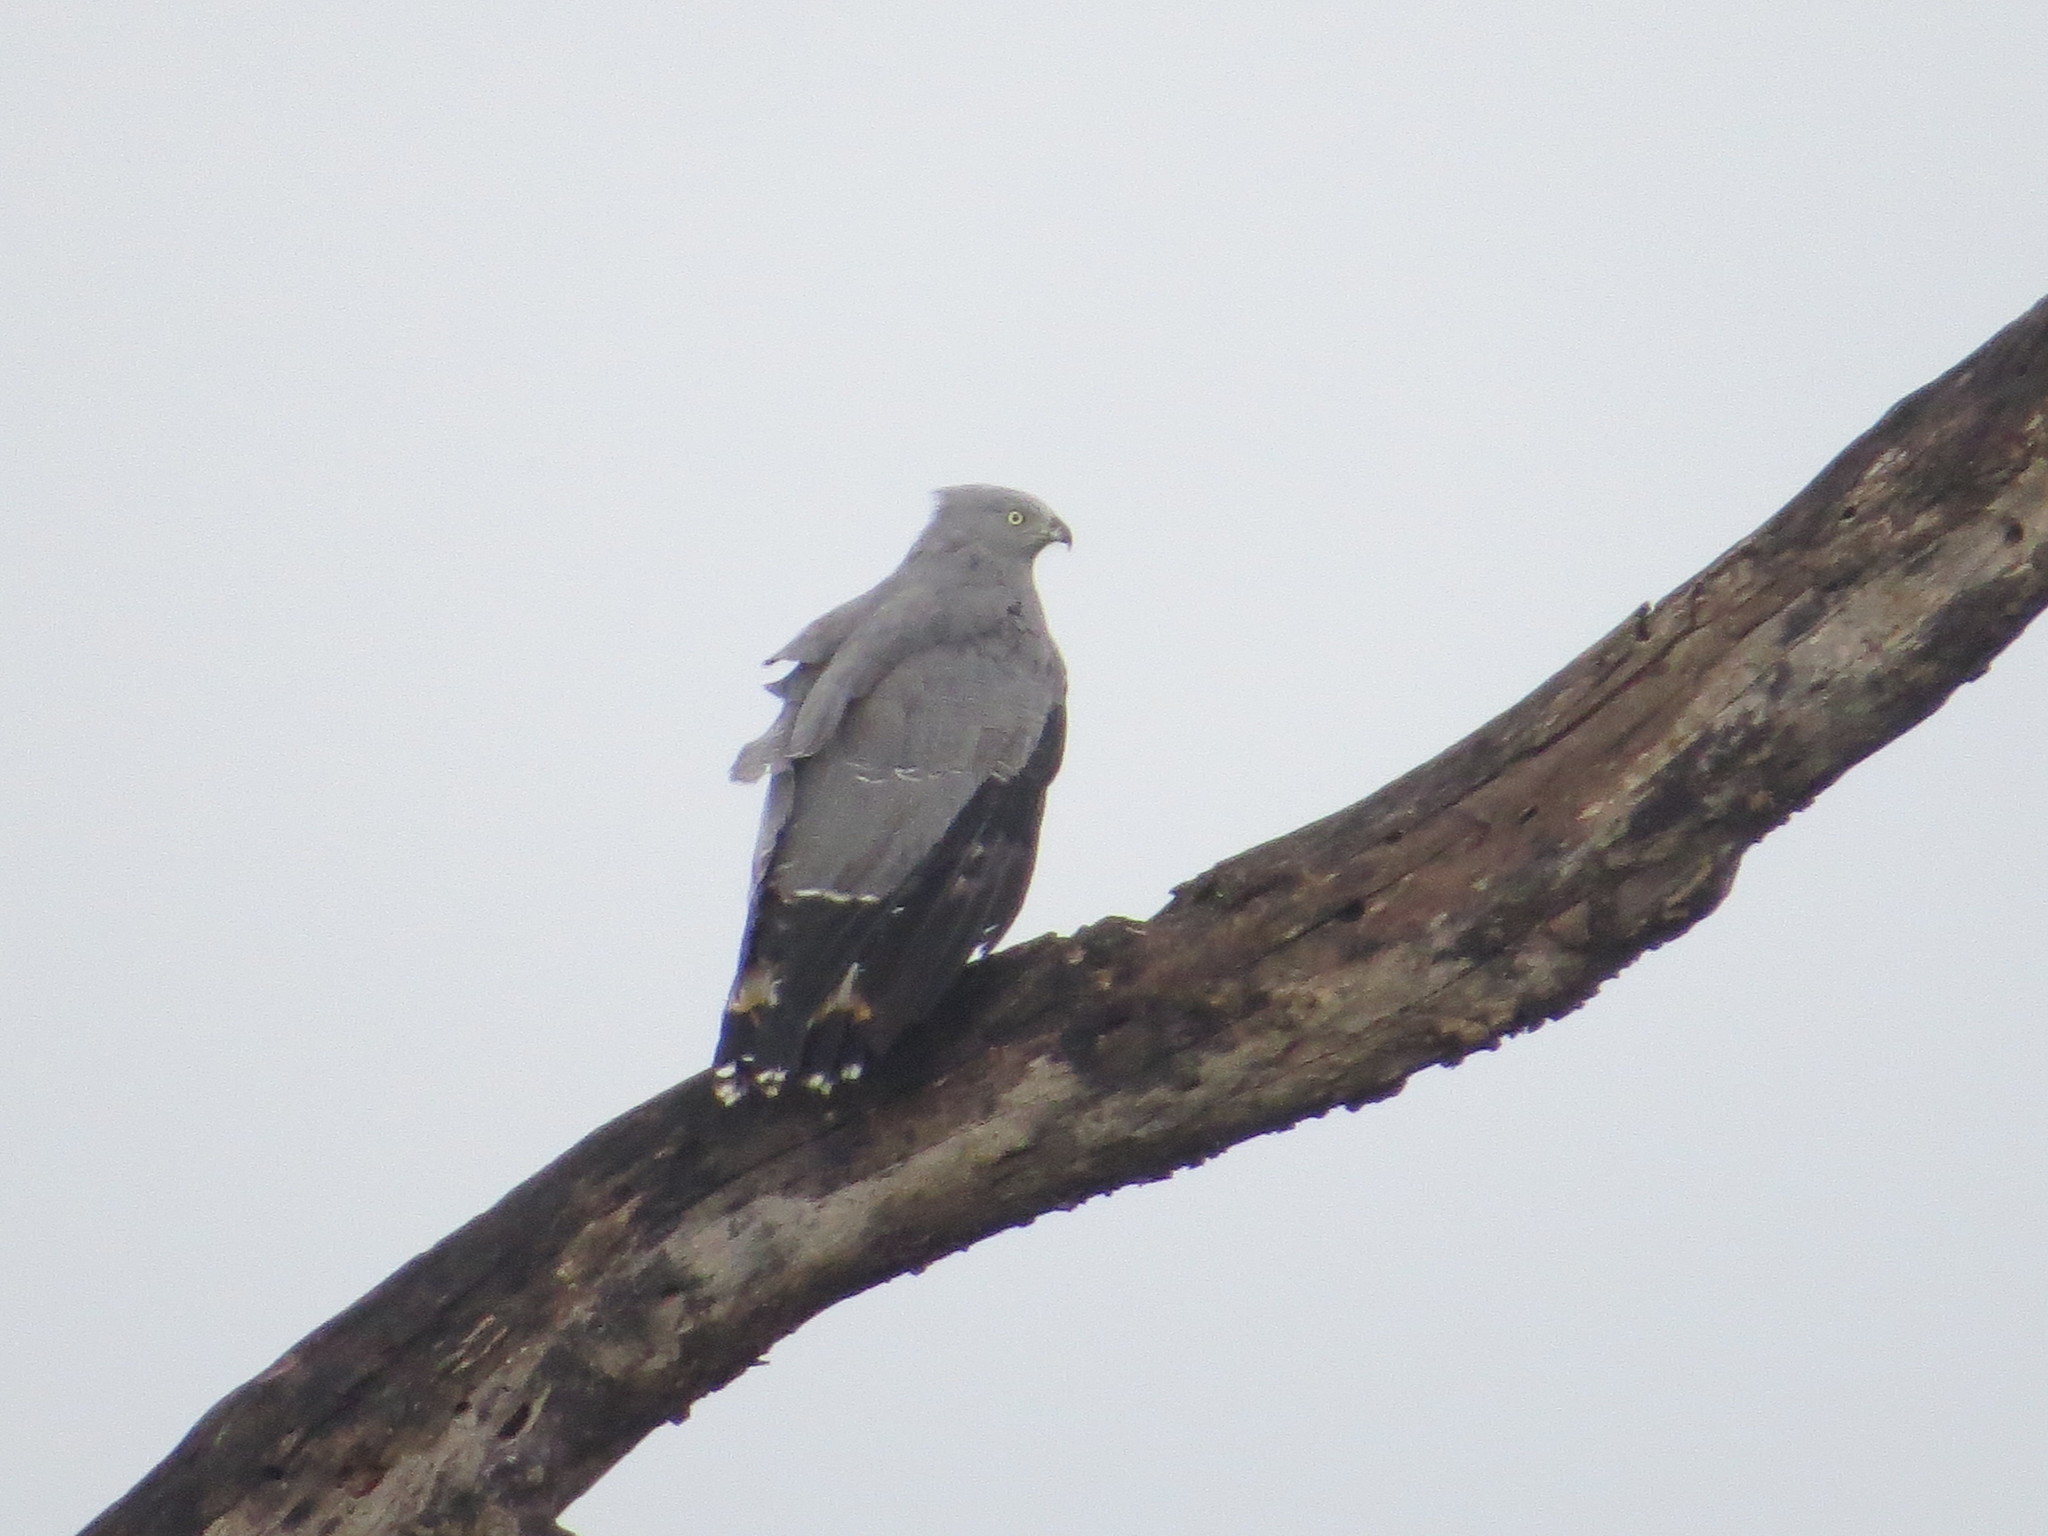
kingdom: Animalia
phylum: Chordata
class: Aves
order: Accipitriformes
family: Accipitridae
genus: Geranospiza
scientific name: Geranospiza caerulescens
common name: Crane hawk
